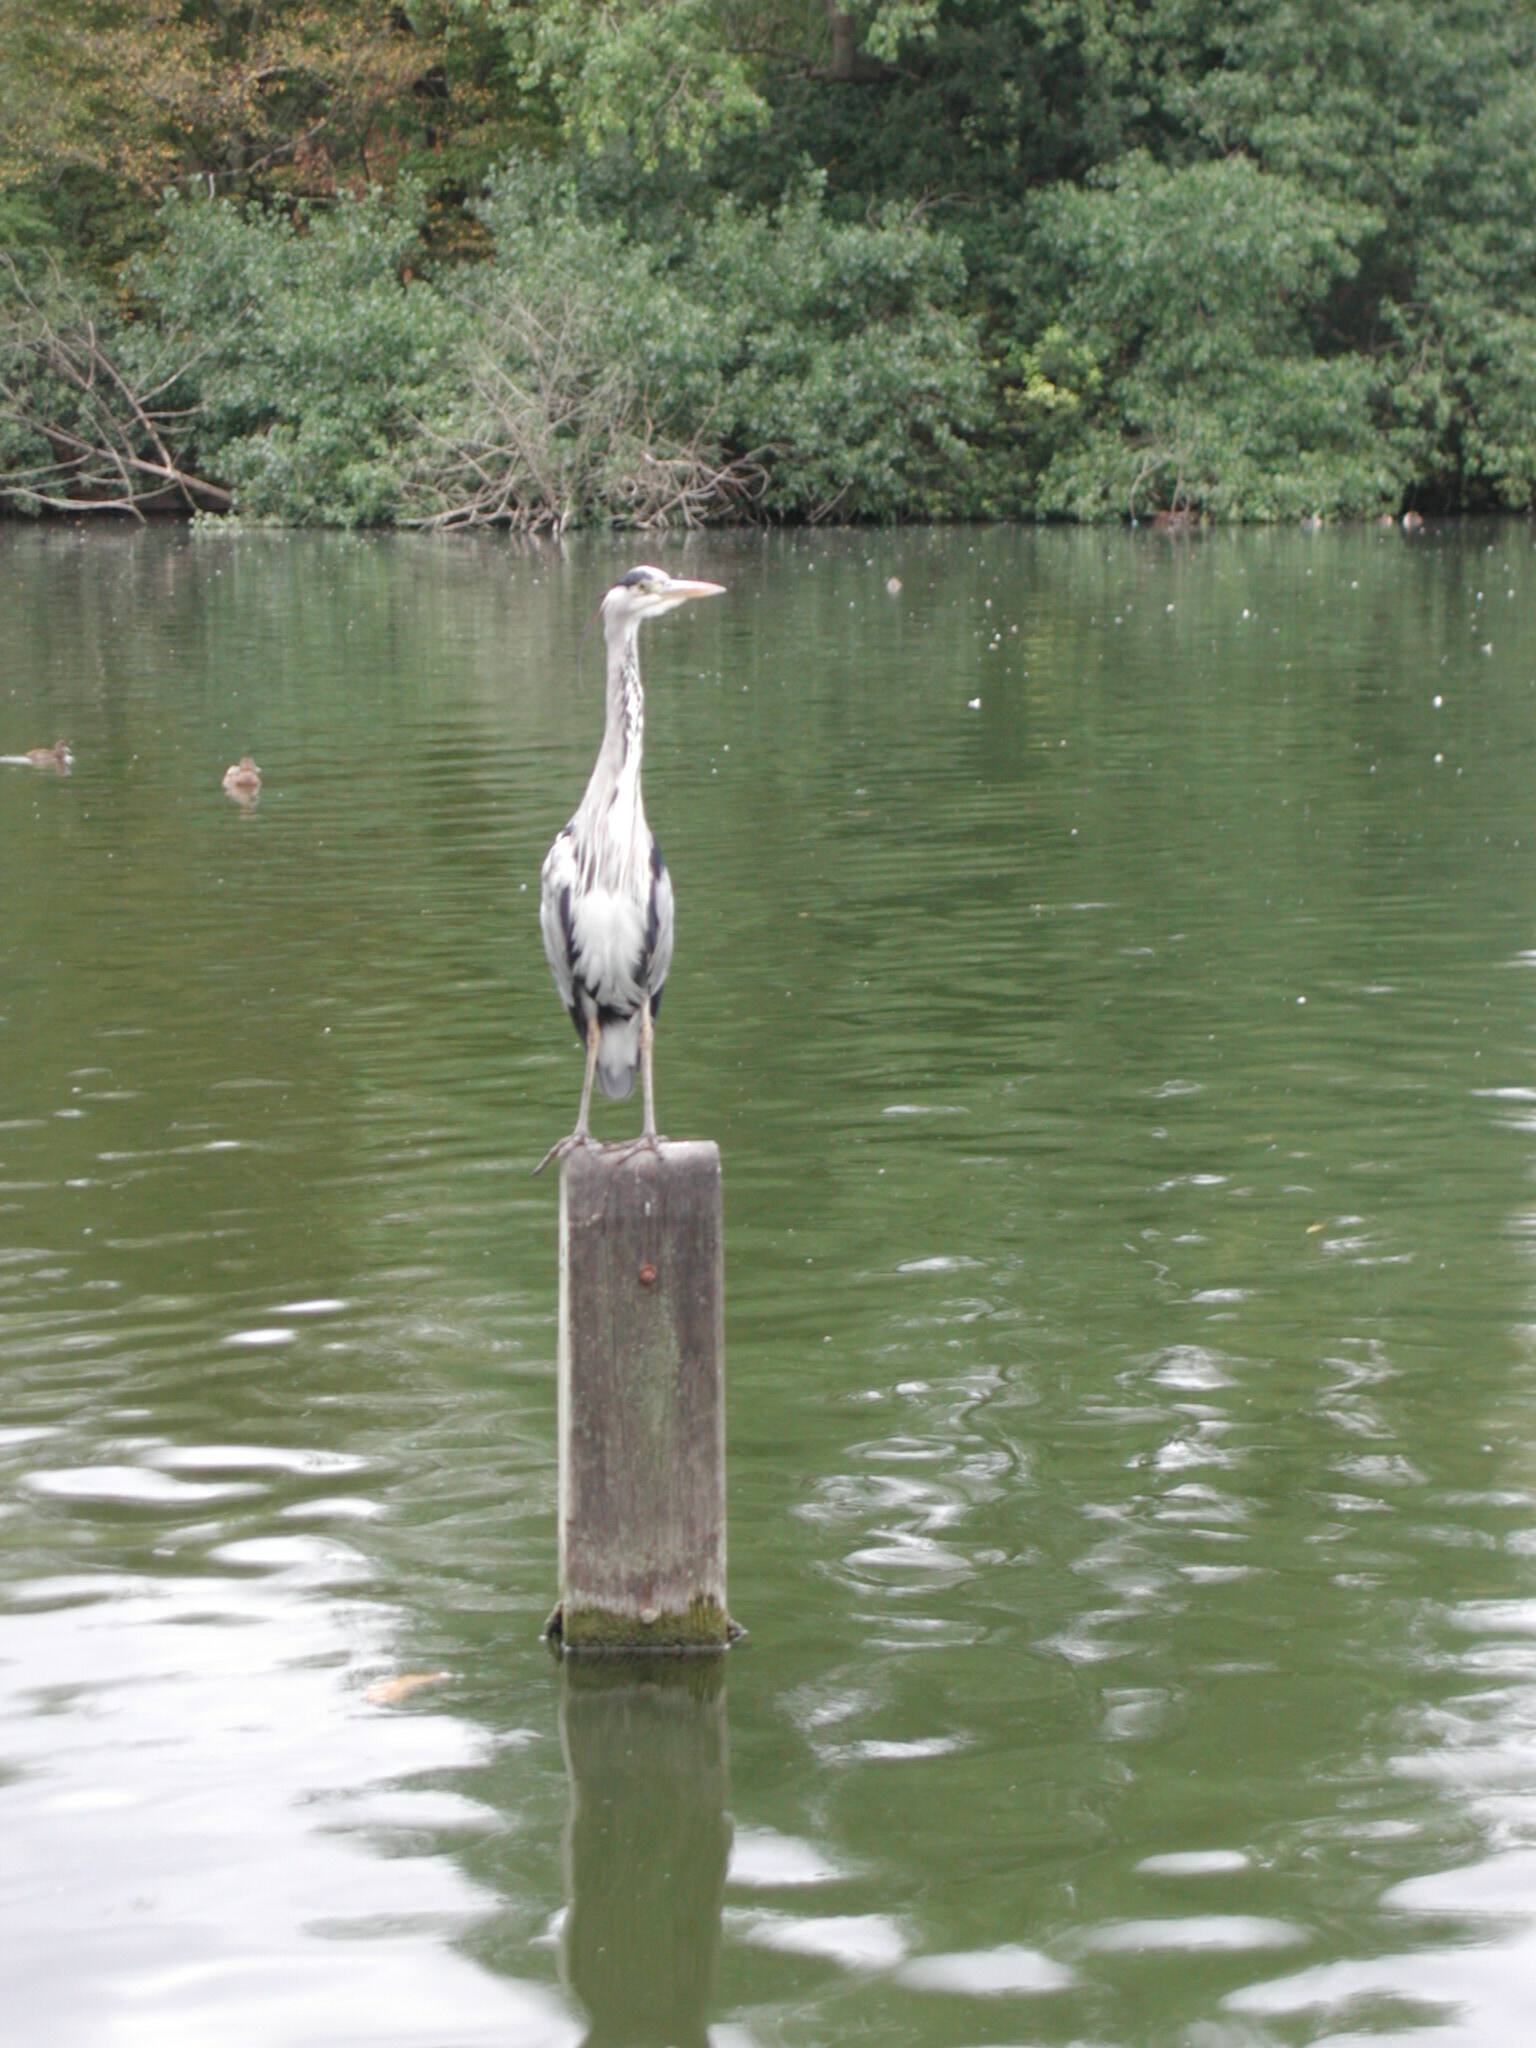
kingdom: Animalia
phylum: Chordata
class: Aves
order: Pelecaniformes
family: Ardeidae
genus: Ardea
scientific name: Ardea cinerea
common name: Grey heron
